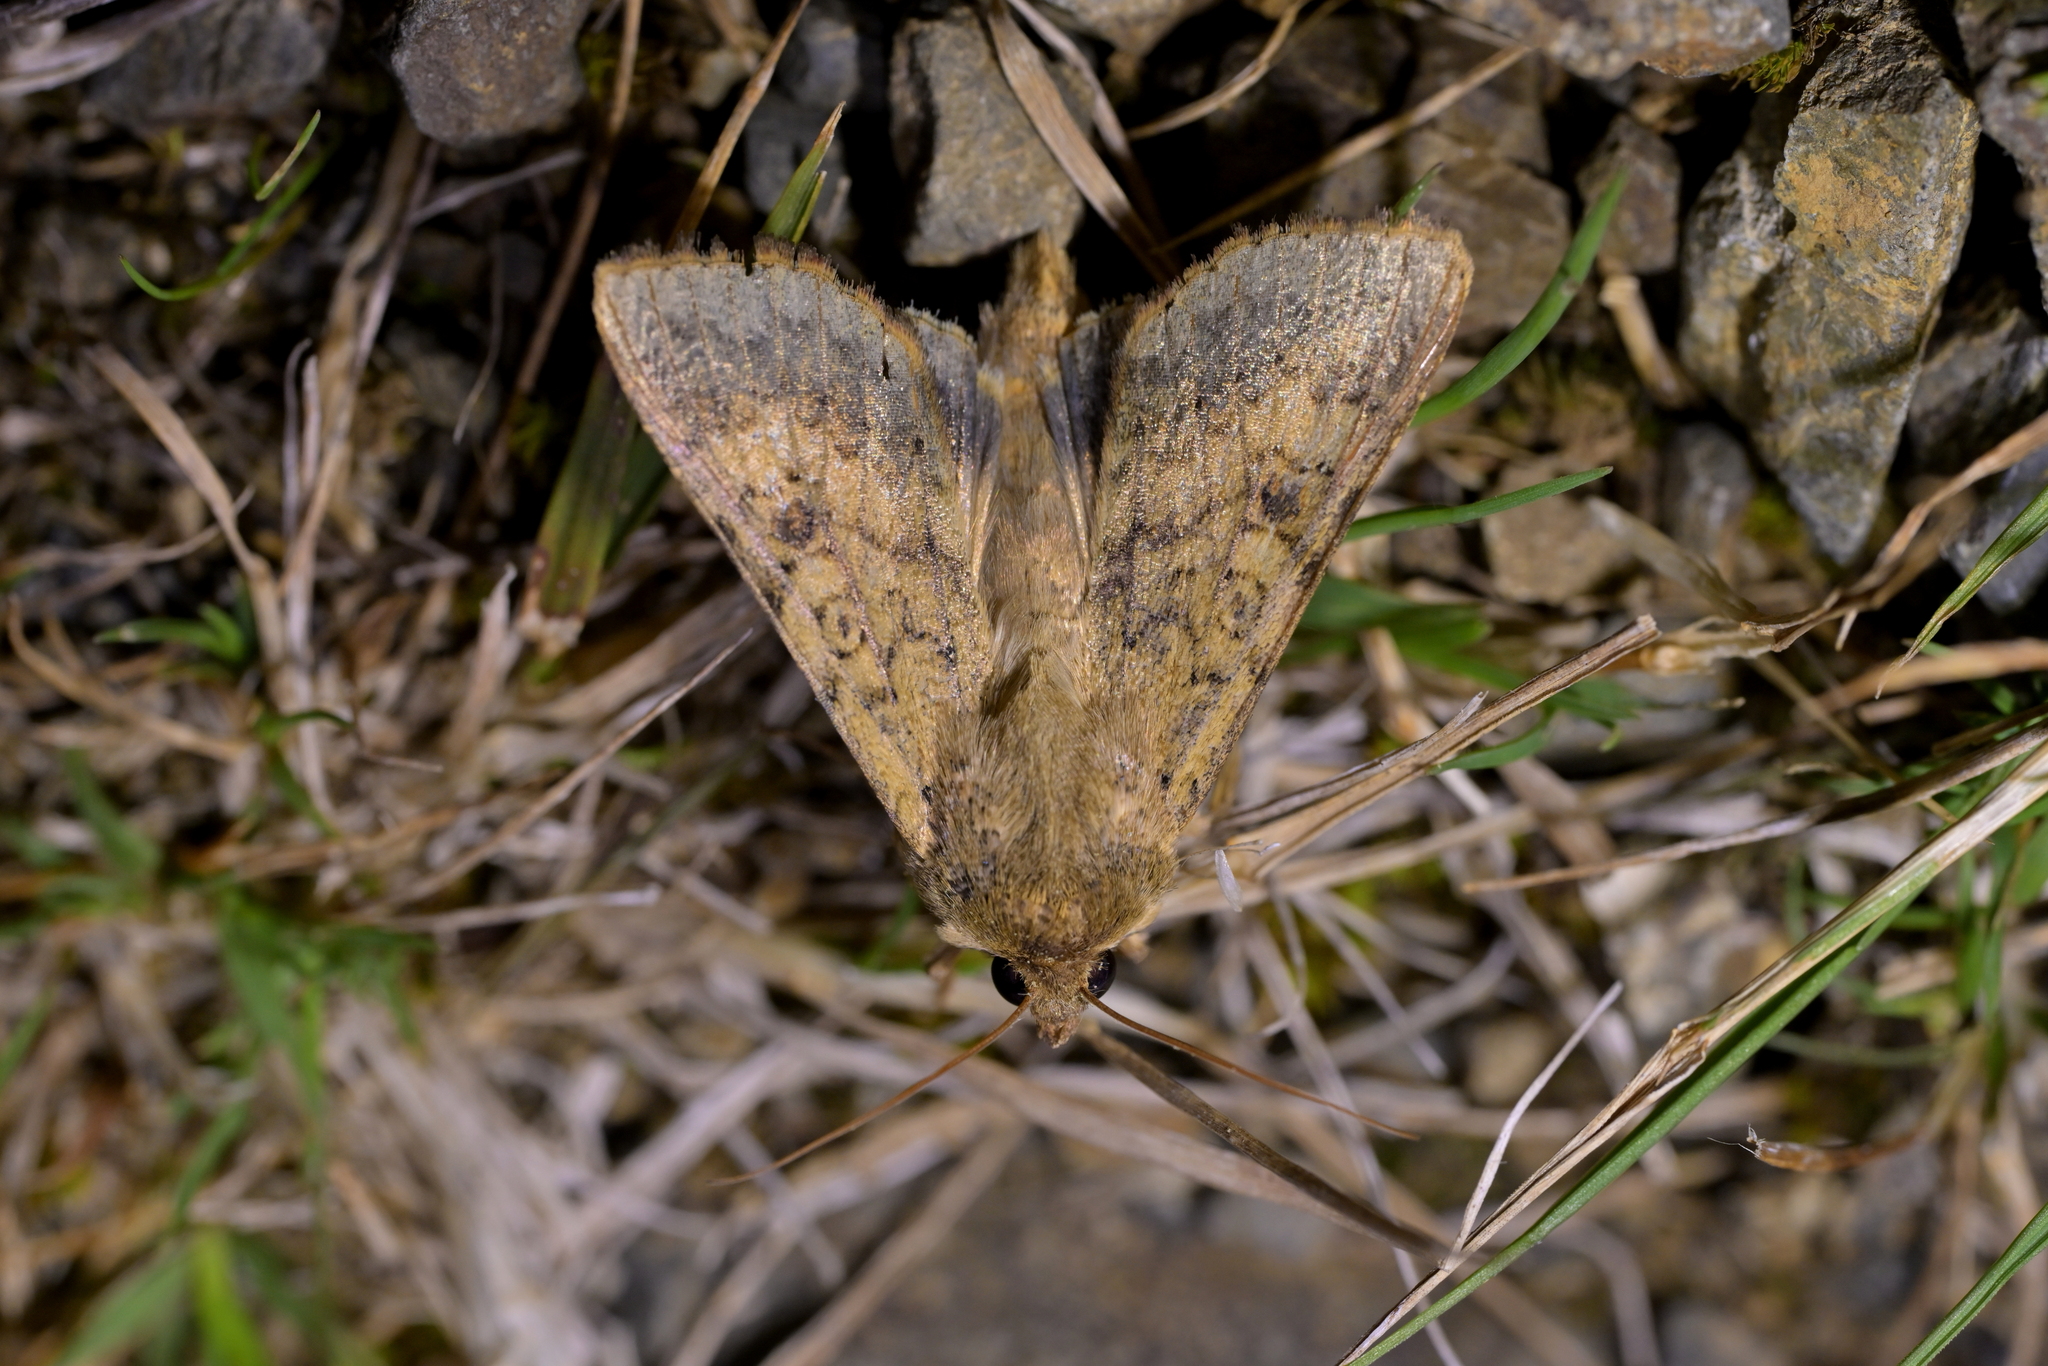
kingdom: Animalia
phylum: Arthropoda
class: Insecta
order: Lepidoptera
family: Noctuidae
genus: Helicoverpa
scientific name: Helicoverpa armigera
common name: Cotton bollworm
